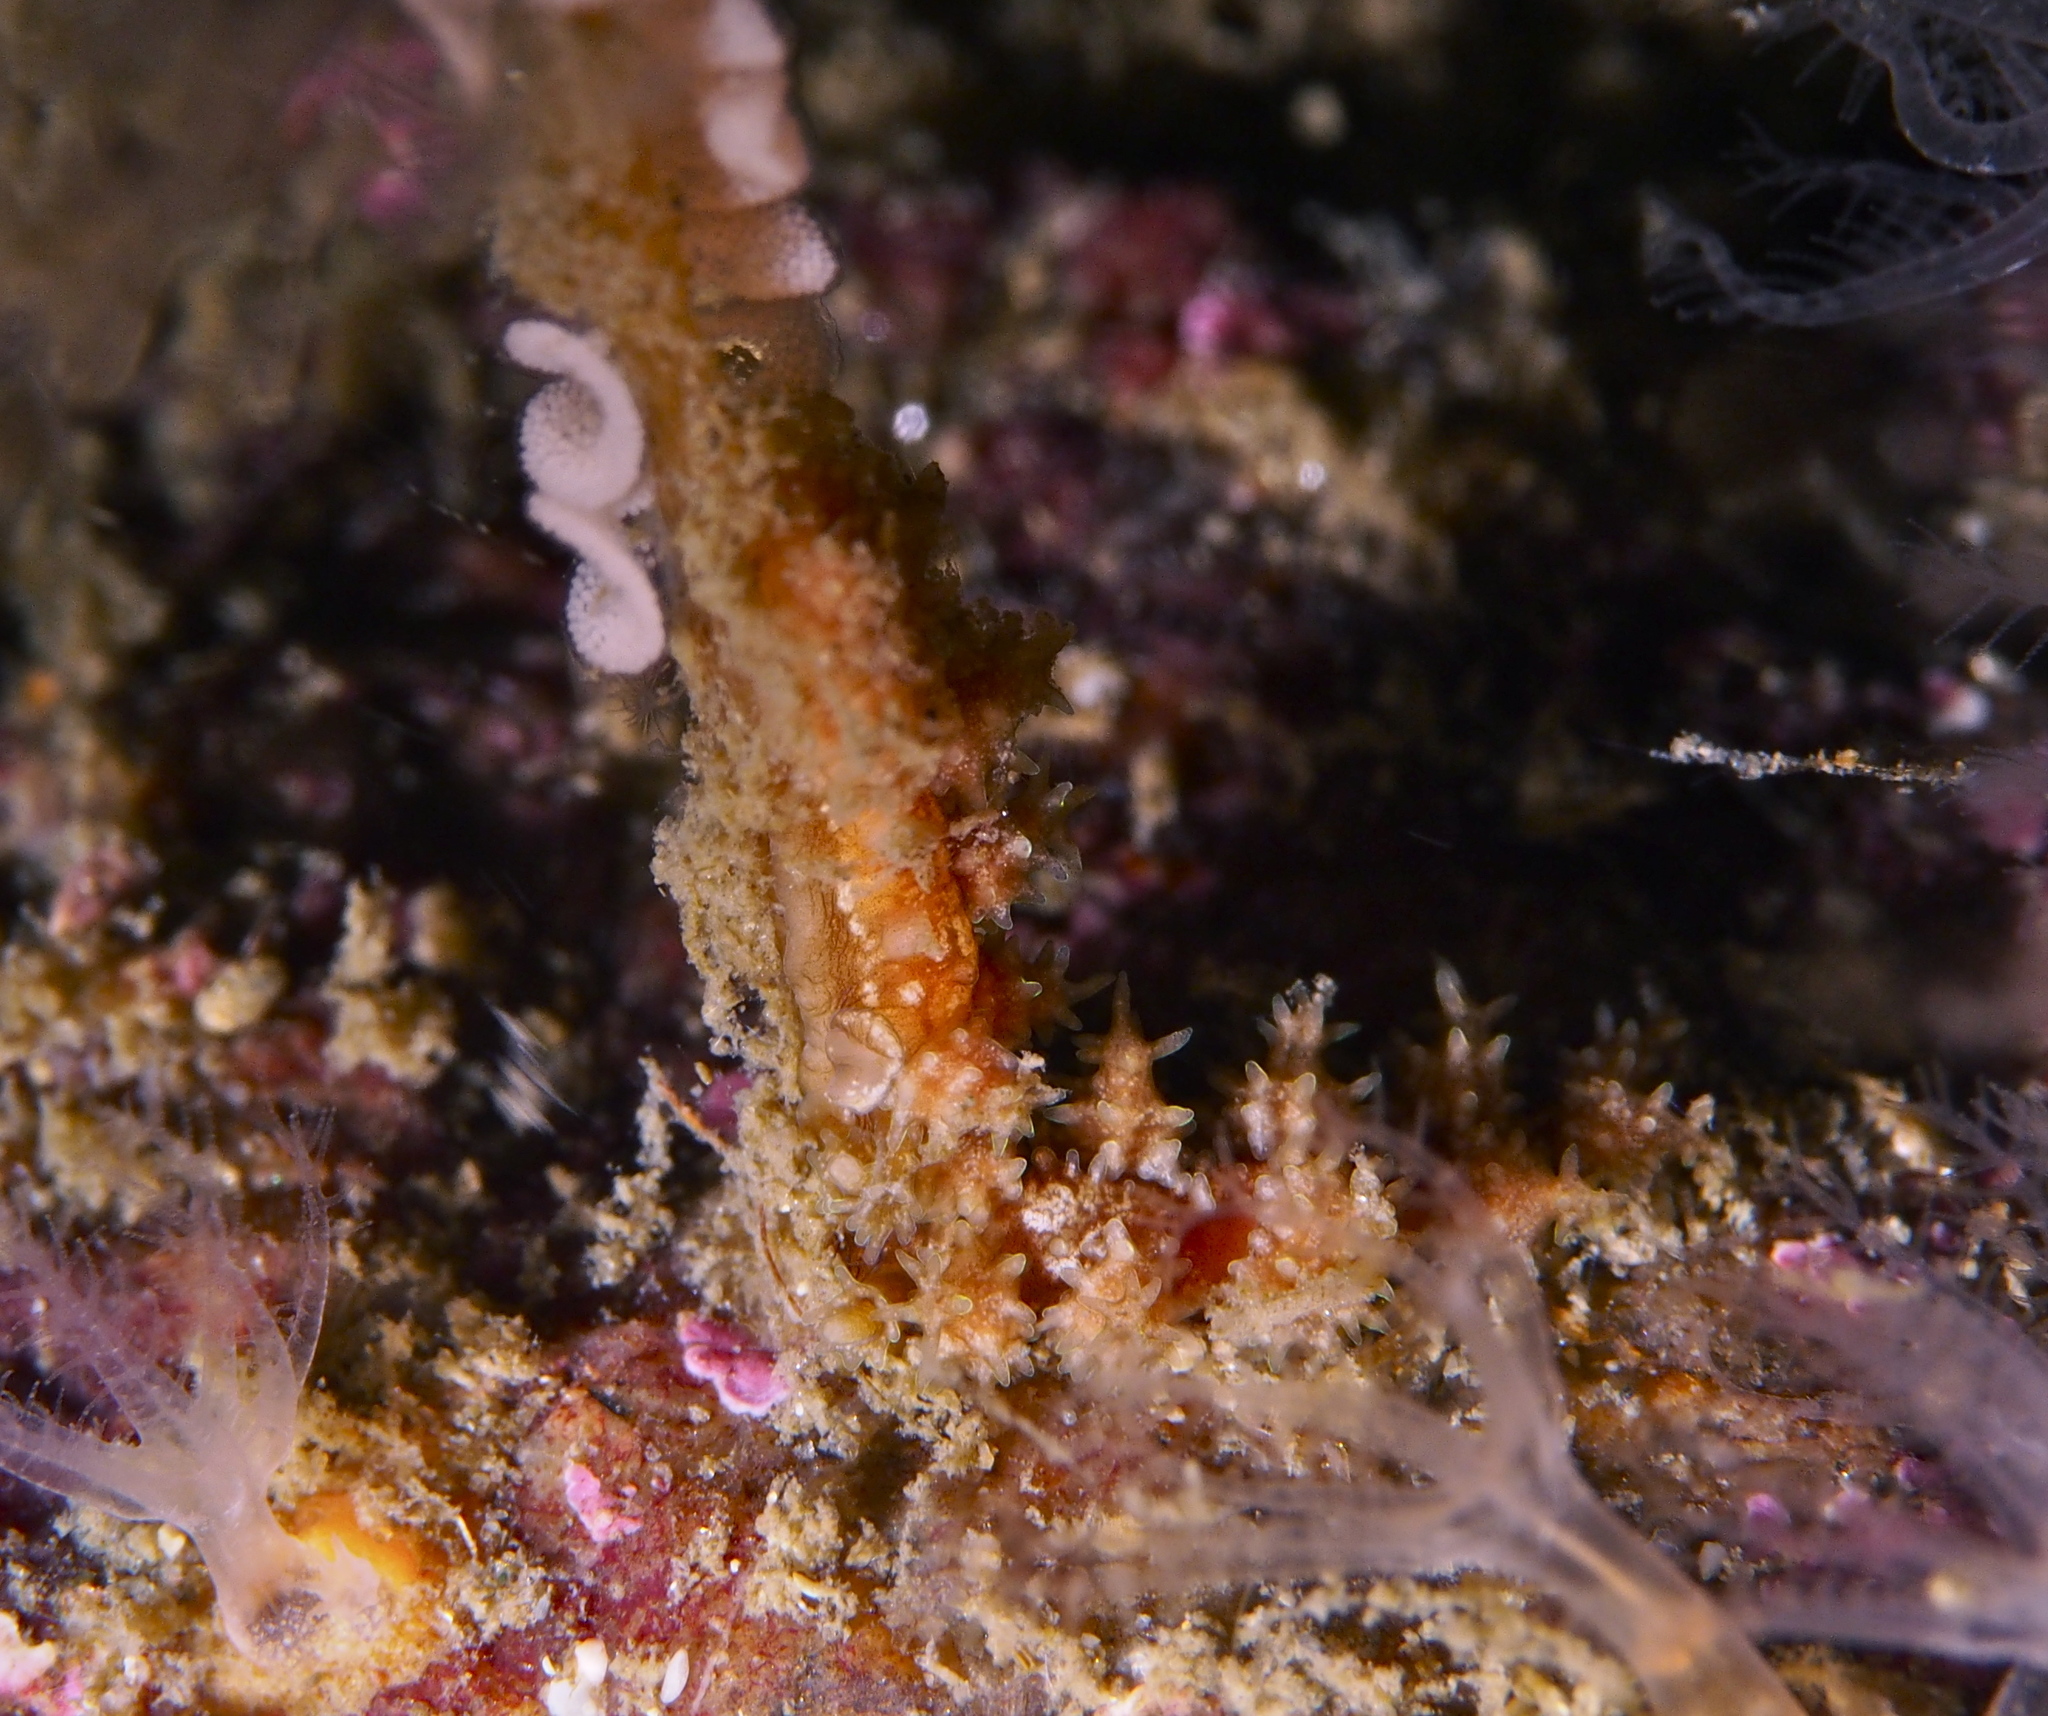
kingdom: Animalia
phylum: Mollusca
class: Gastropoda
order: Nudibranchia
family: Dotidae
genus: Doto
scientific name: Doto hystrix
